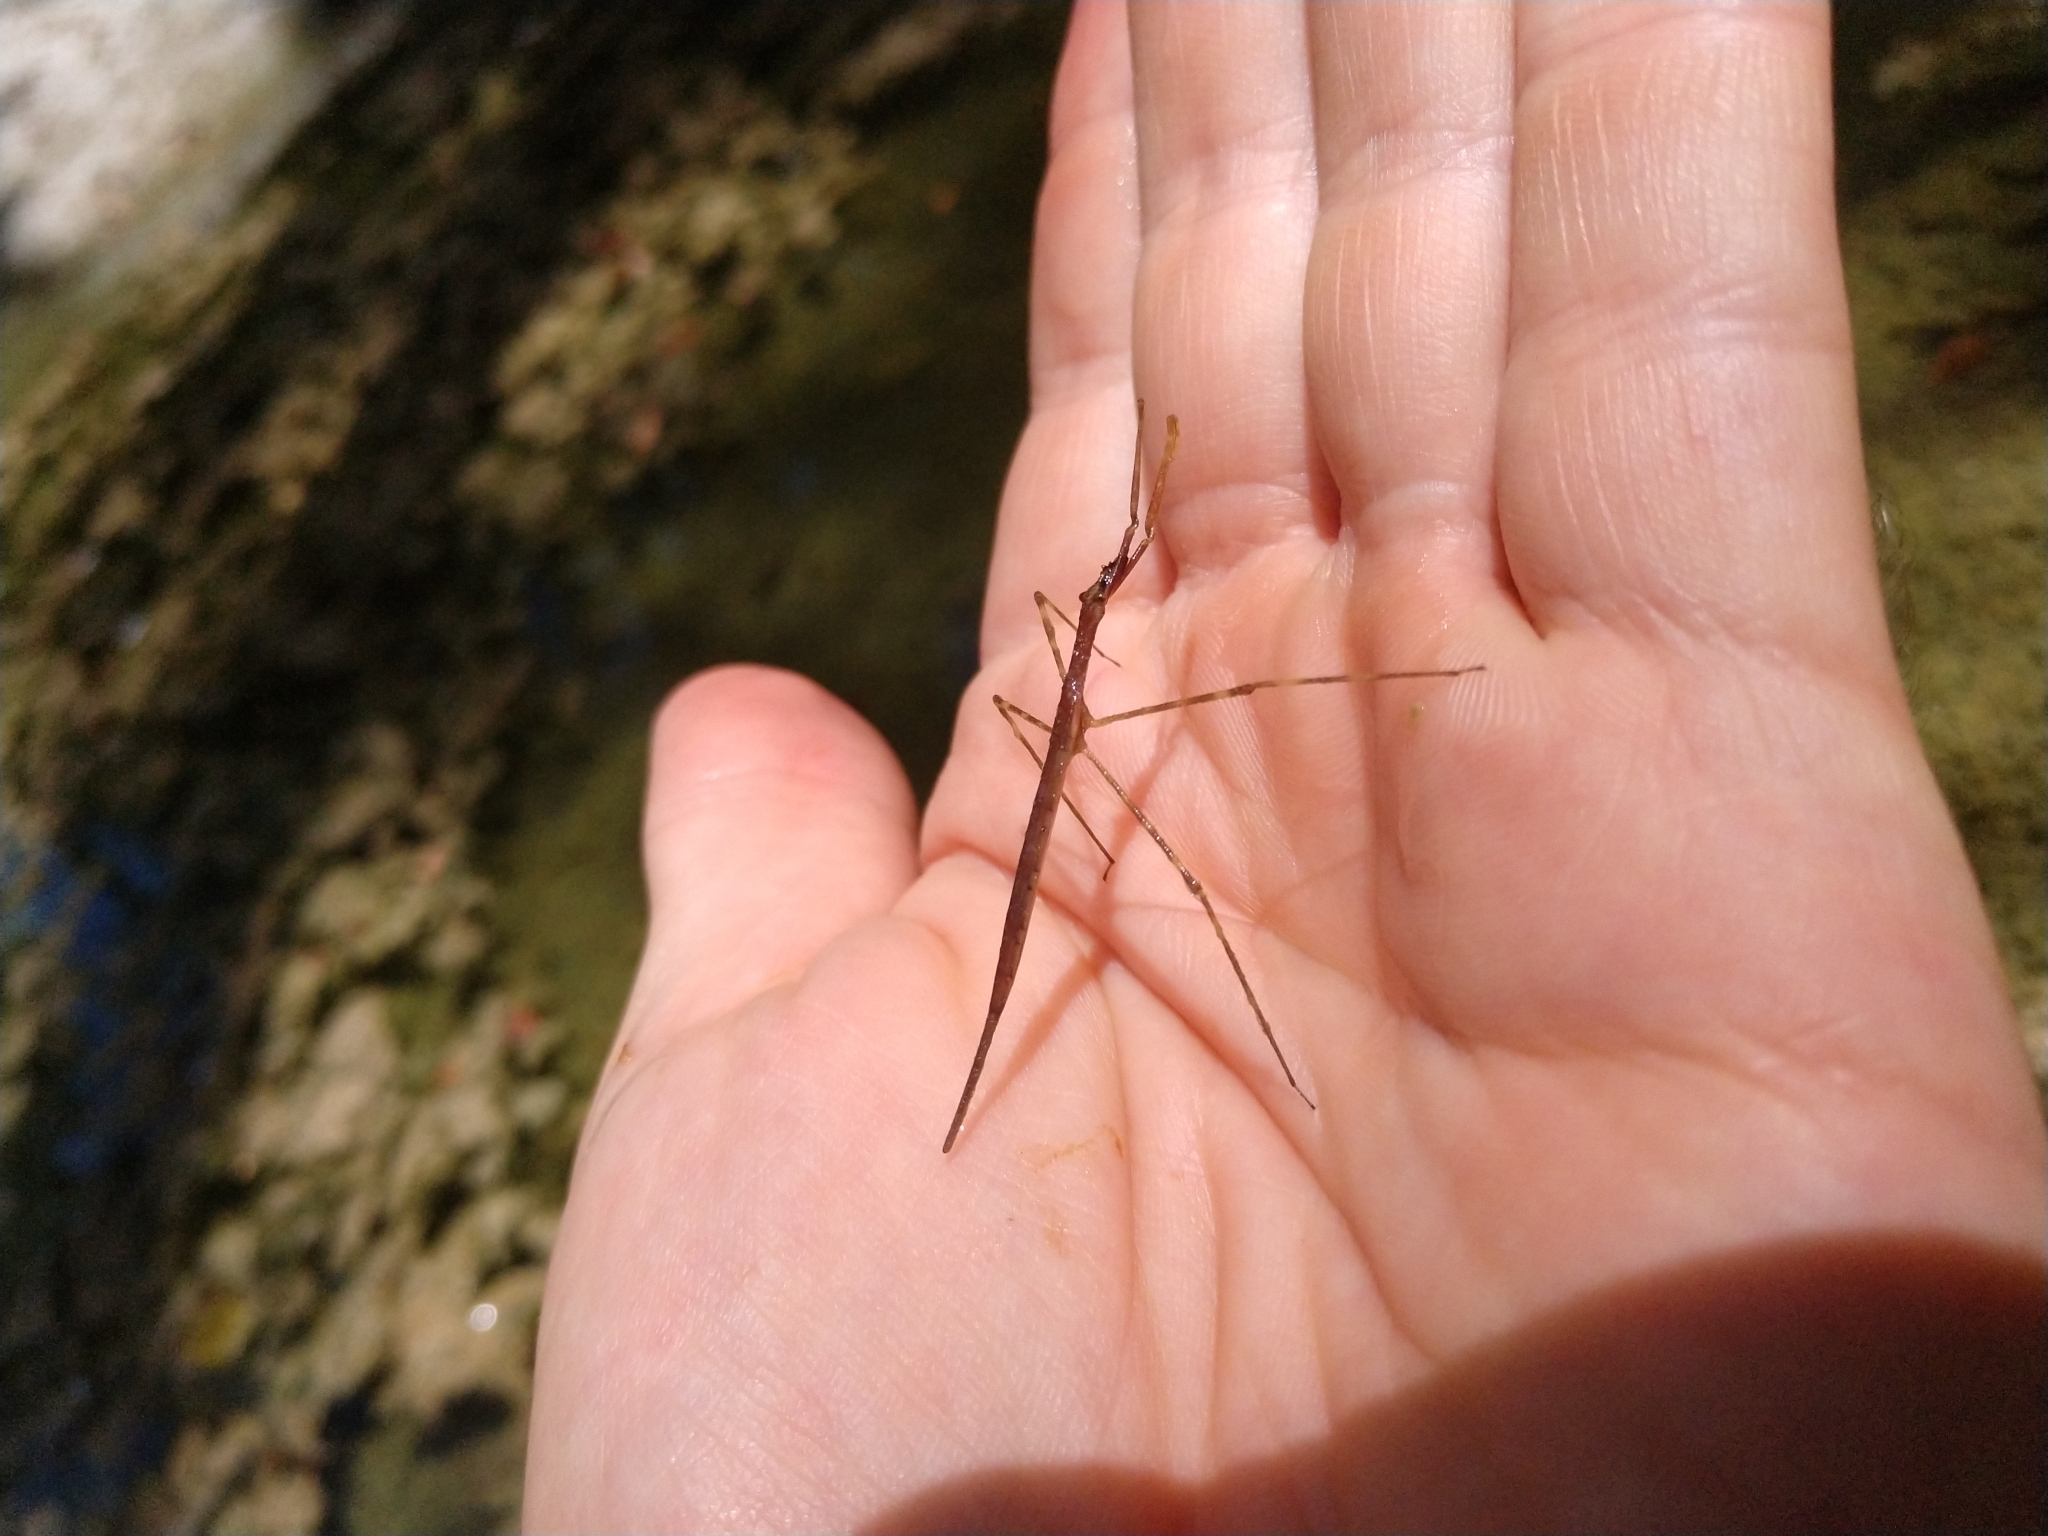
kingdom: Animalia
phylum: Arthropoda
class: Insecta
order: Hemiptera
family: Nepidae
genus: Ranatra
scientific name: Ranatra
